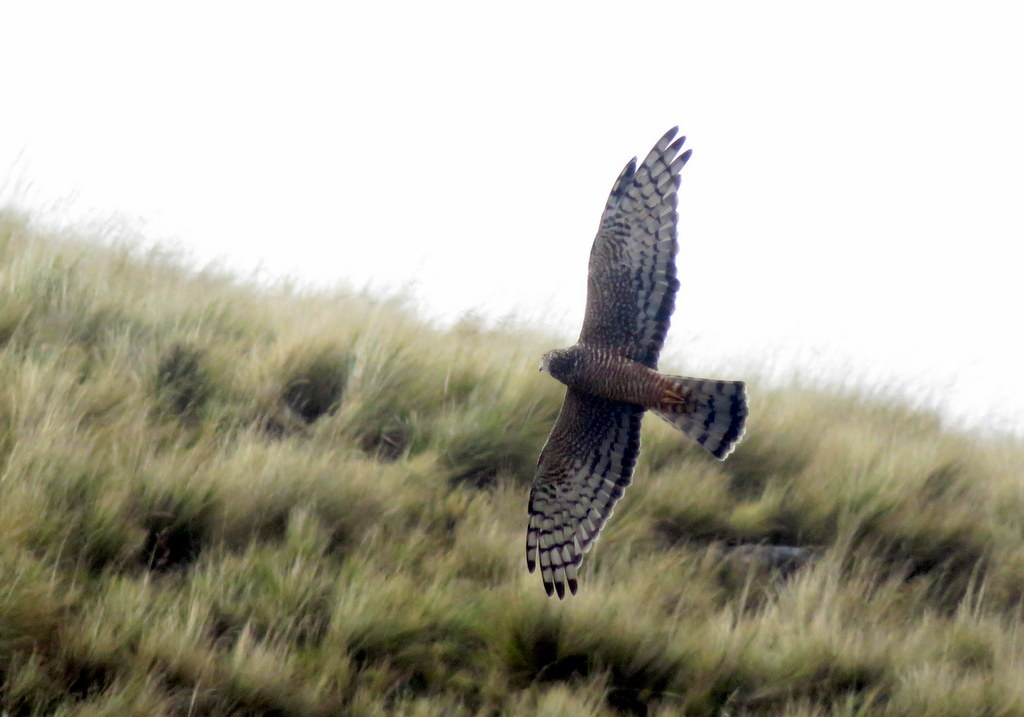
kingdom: Animalia
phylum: Chordata
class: Aves
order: Accipitriformes
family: Accipitridae
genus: Circus
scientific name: Circus cinereus
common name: Cinereous harrier
